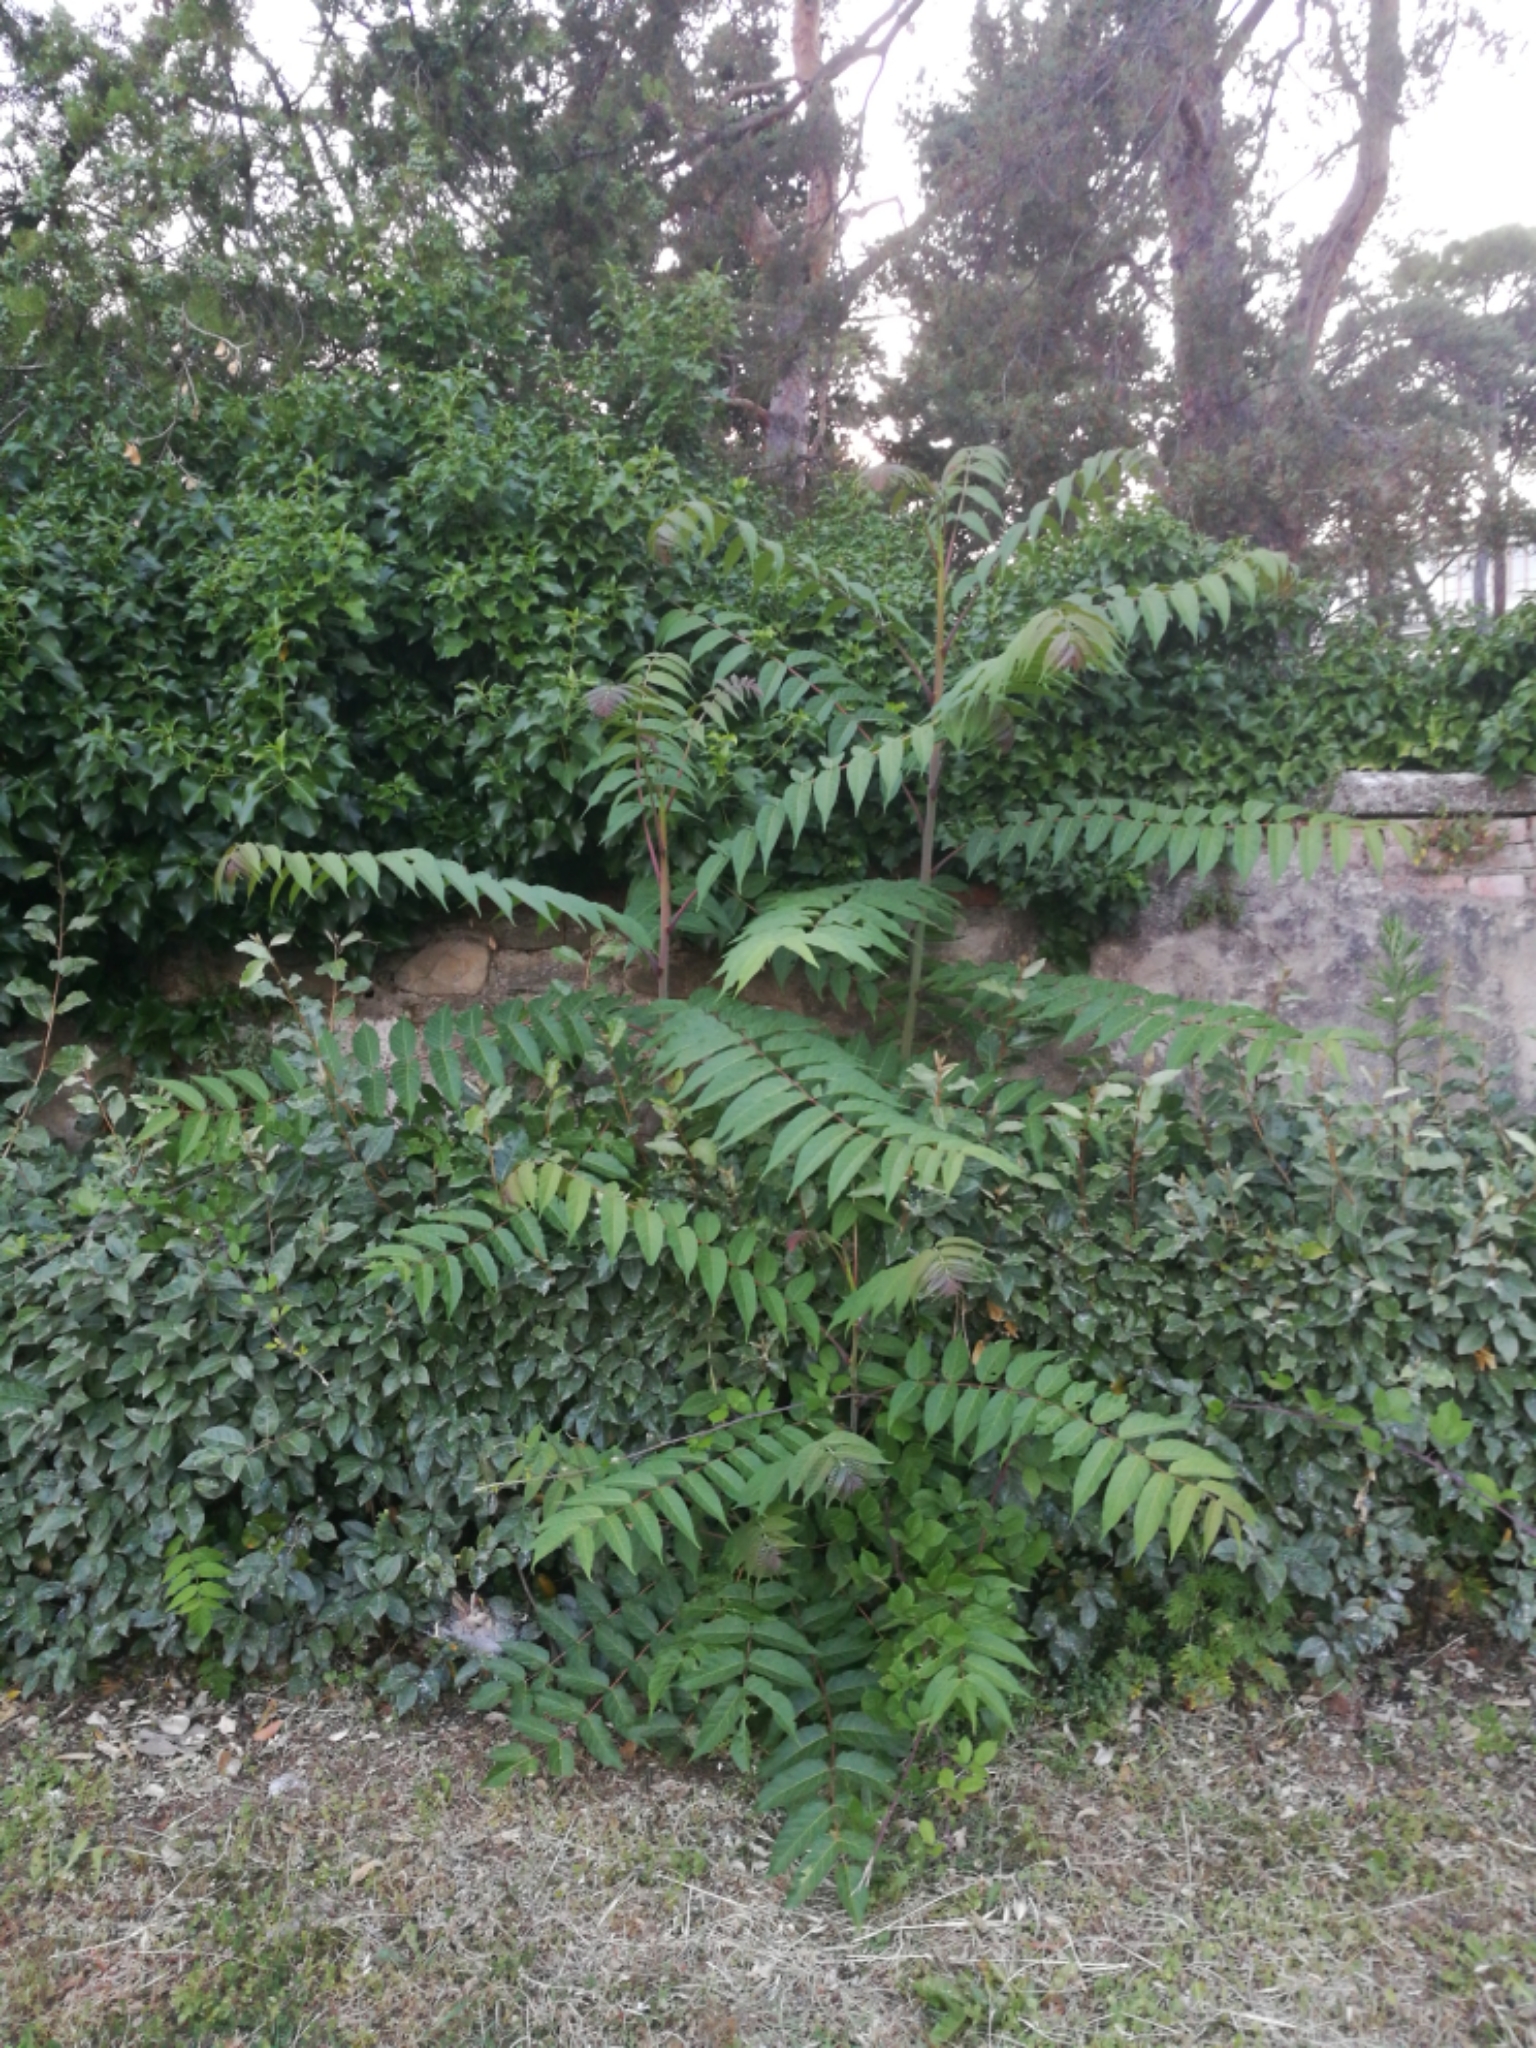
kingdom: Plantae
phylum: Tracheophyta
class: Magnoliopsida
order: Sapindales
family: Simaroubaceae
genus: Ailanthus
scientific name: Ailanthus altissima
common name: Tree-of-heaven
